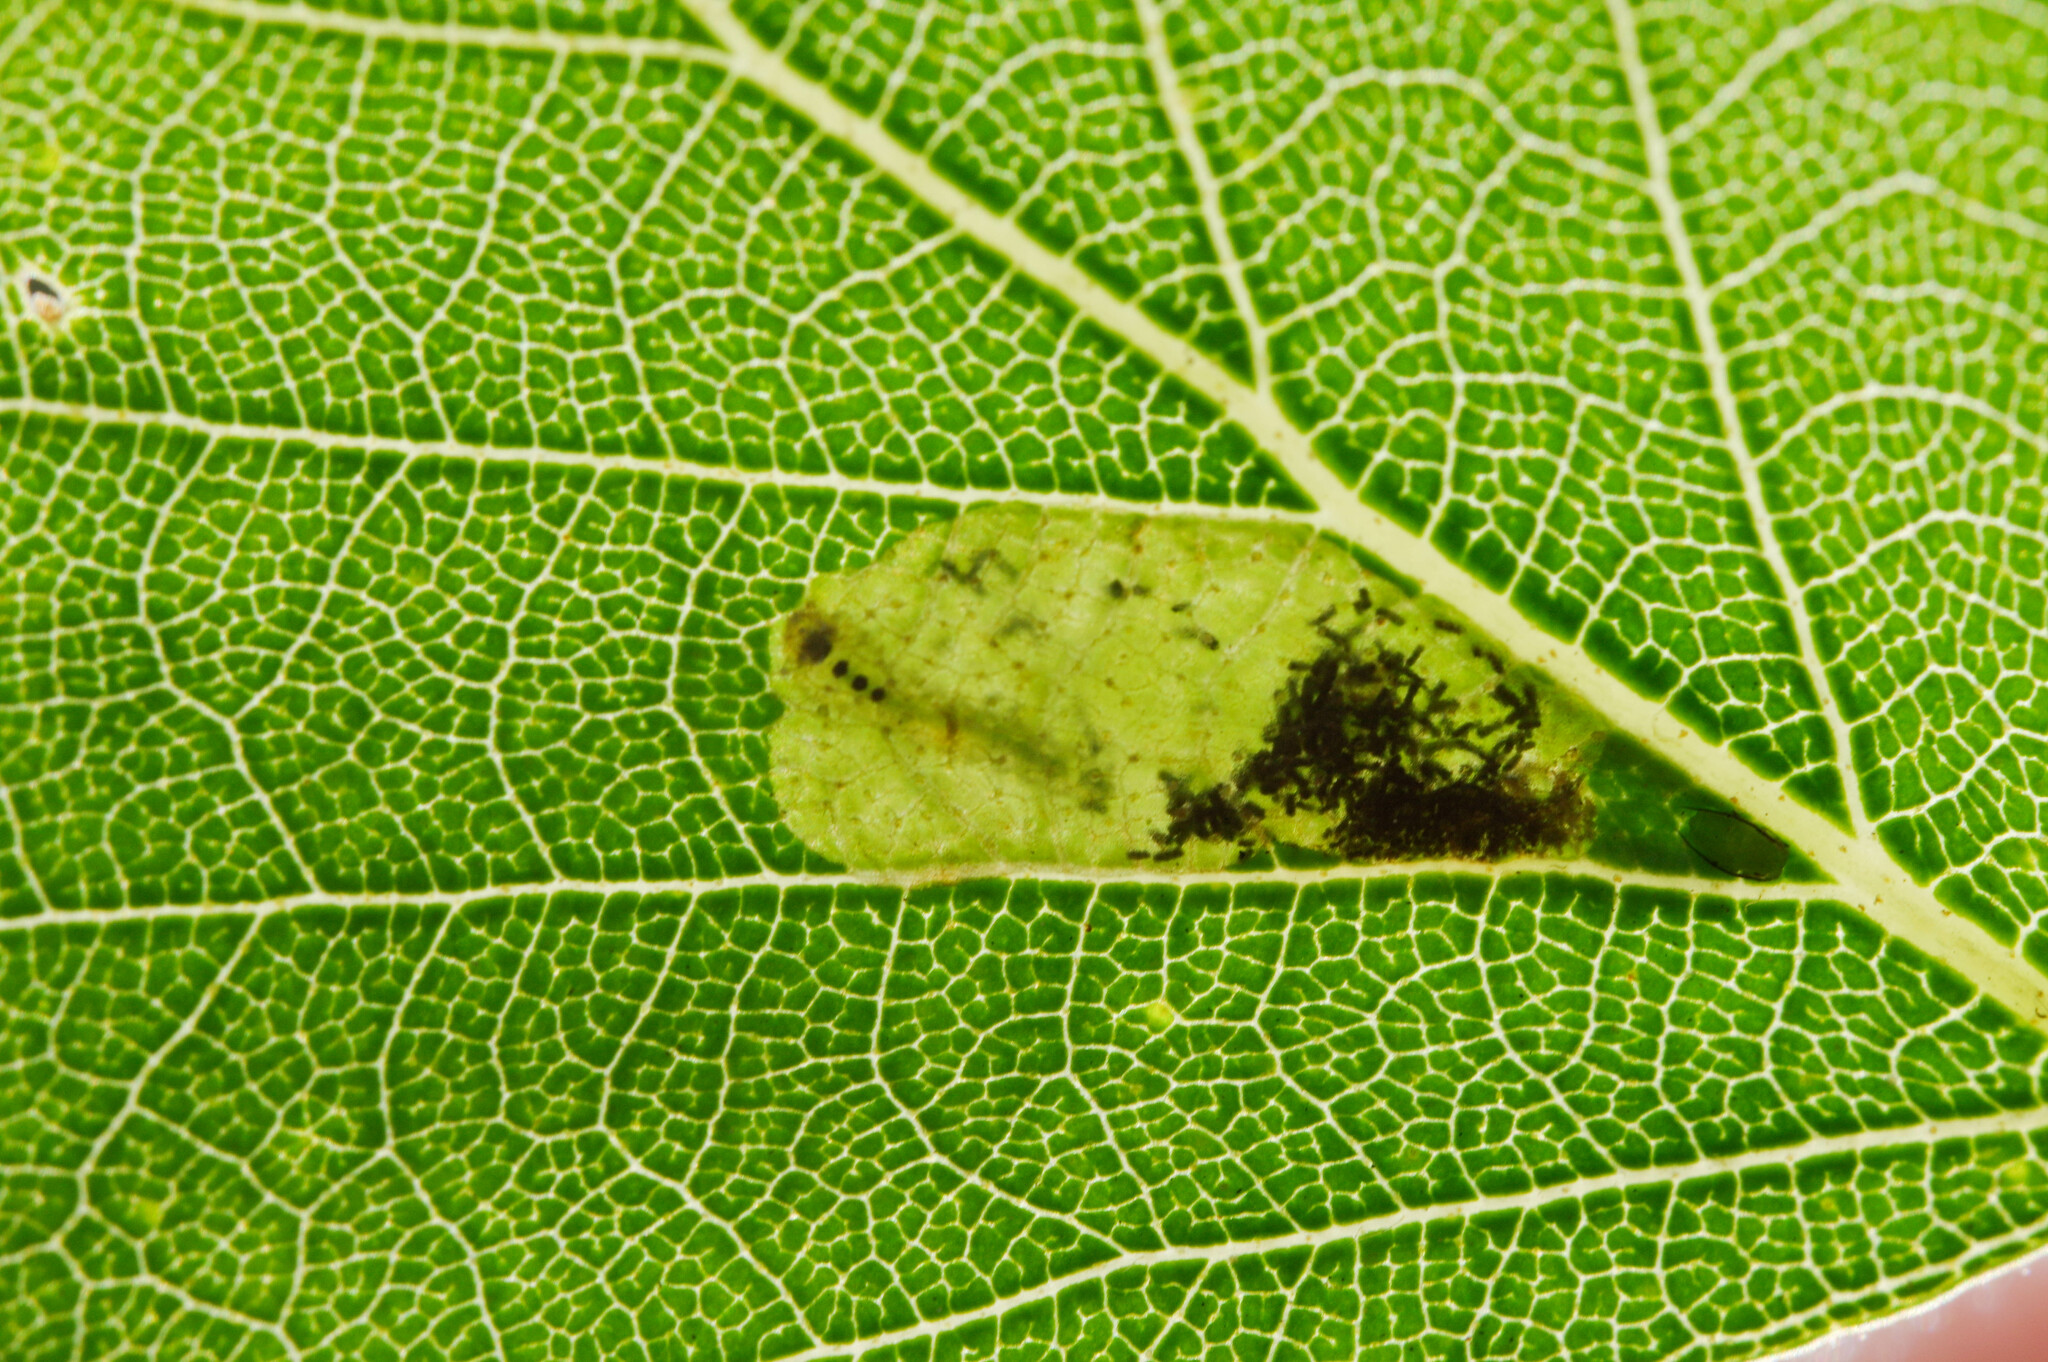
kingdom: Animalia
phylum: Arthropoda
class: Insecta
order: Hymenoptera
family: Tenthredinidae
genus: Fenusa
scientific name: Fenusa pumila
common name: Birch leafminer
